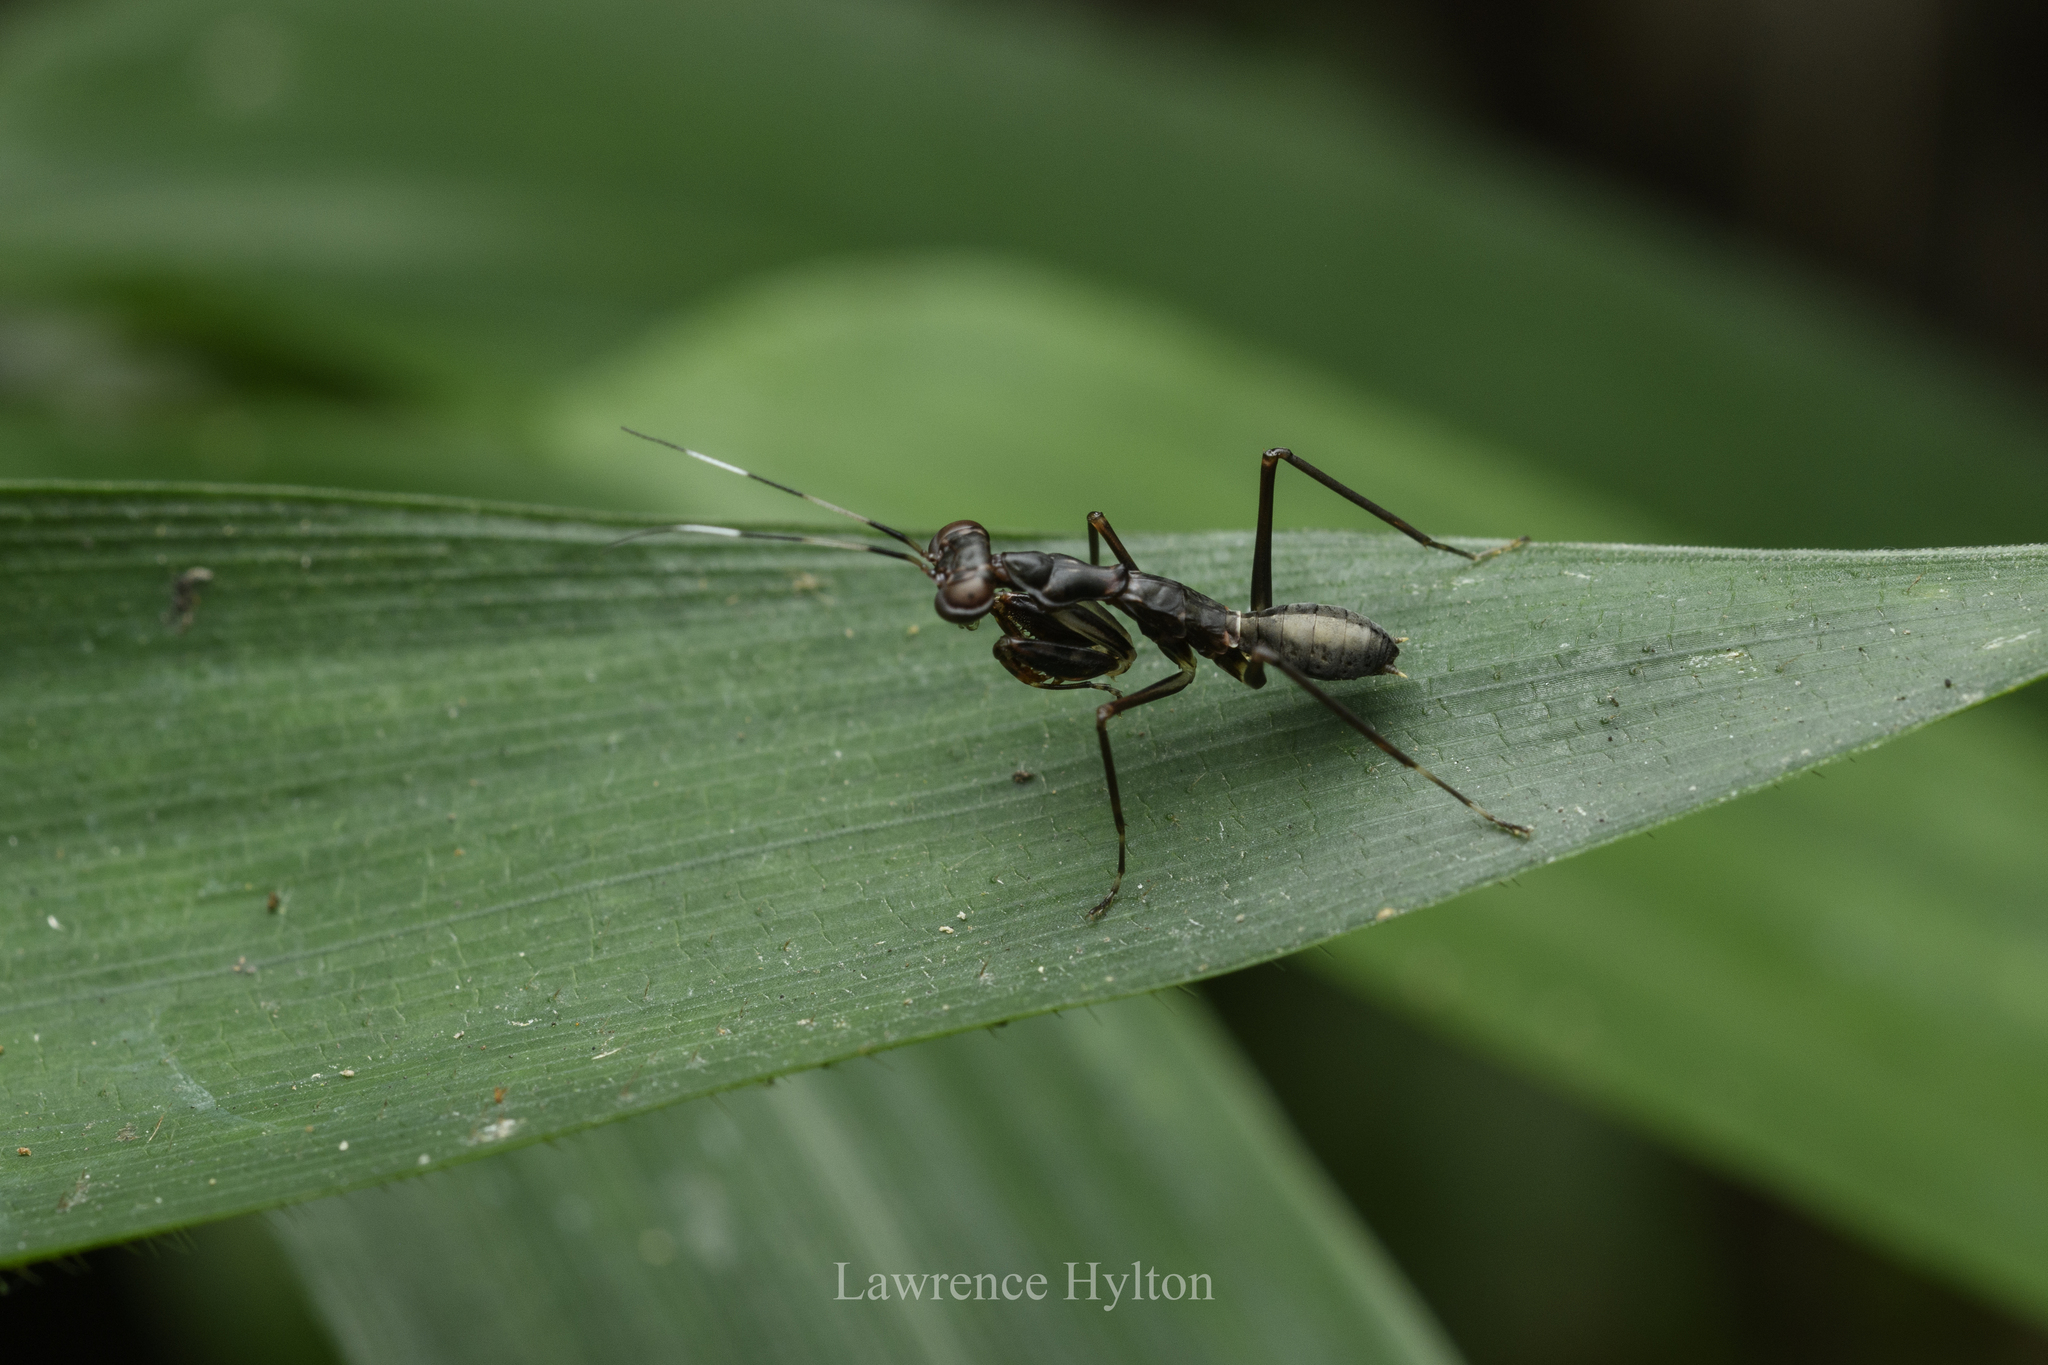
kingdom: Animalia
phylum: Arthropoda
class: Insecta
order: Mantodea
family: Gonypetidae
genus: Spilomantis
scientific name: Spilomantis occipitalis
